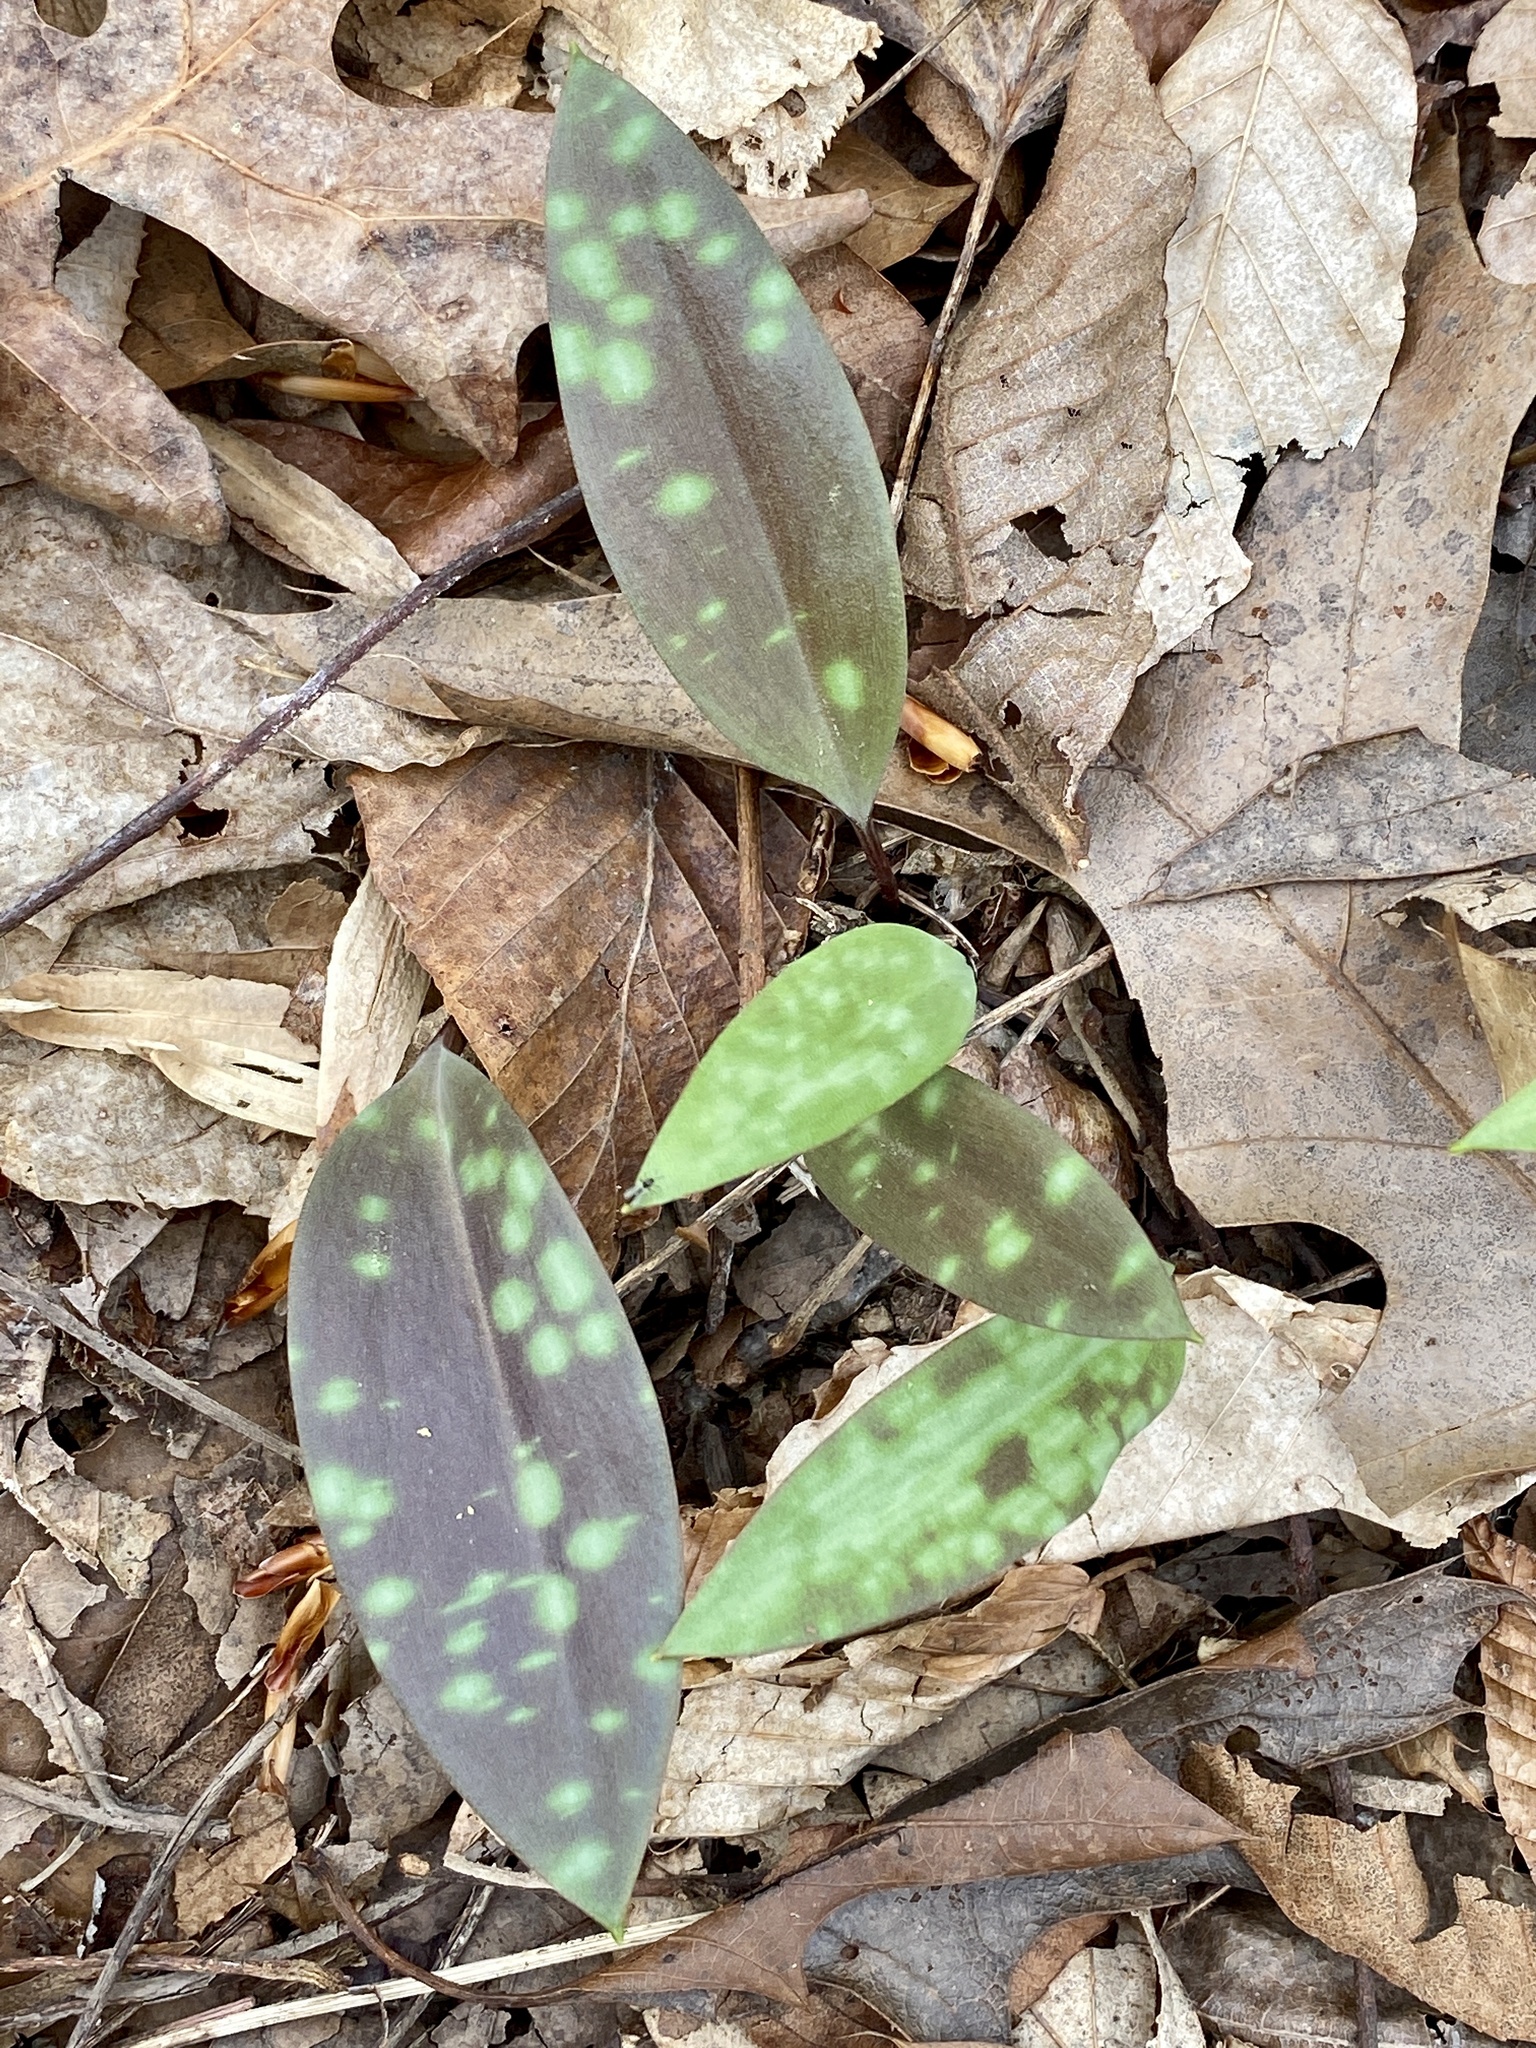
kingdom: Plantae
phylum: Tracheophyta
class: Liliopsida
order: Liliales
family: Liliaceae
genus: Erythronium
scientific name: Erythronium americanum
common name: Yellow adder's-tongue
